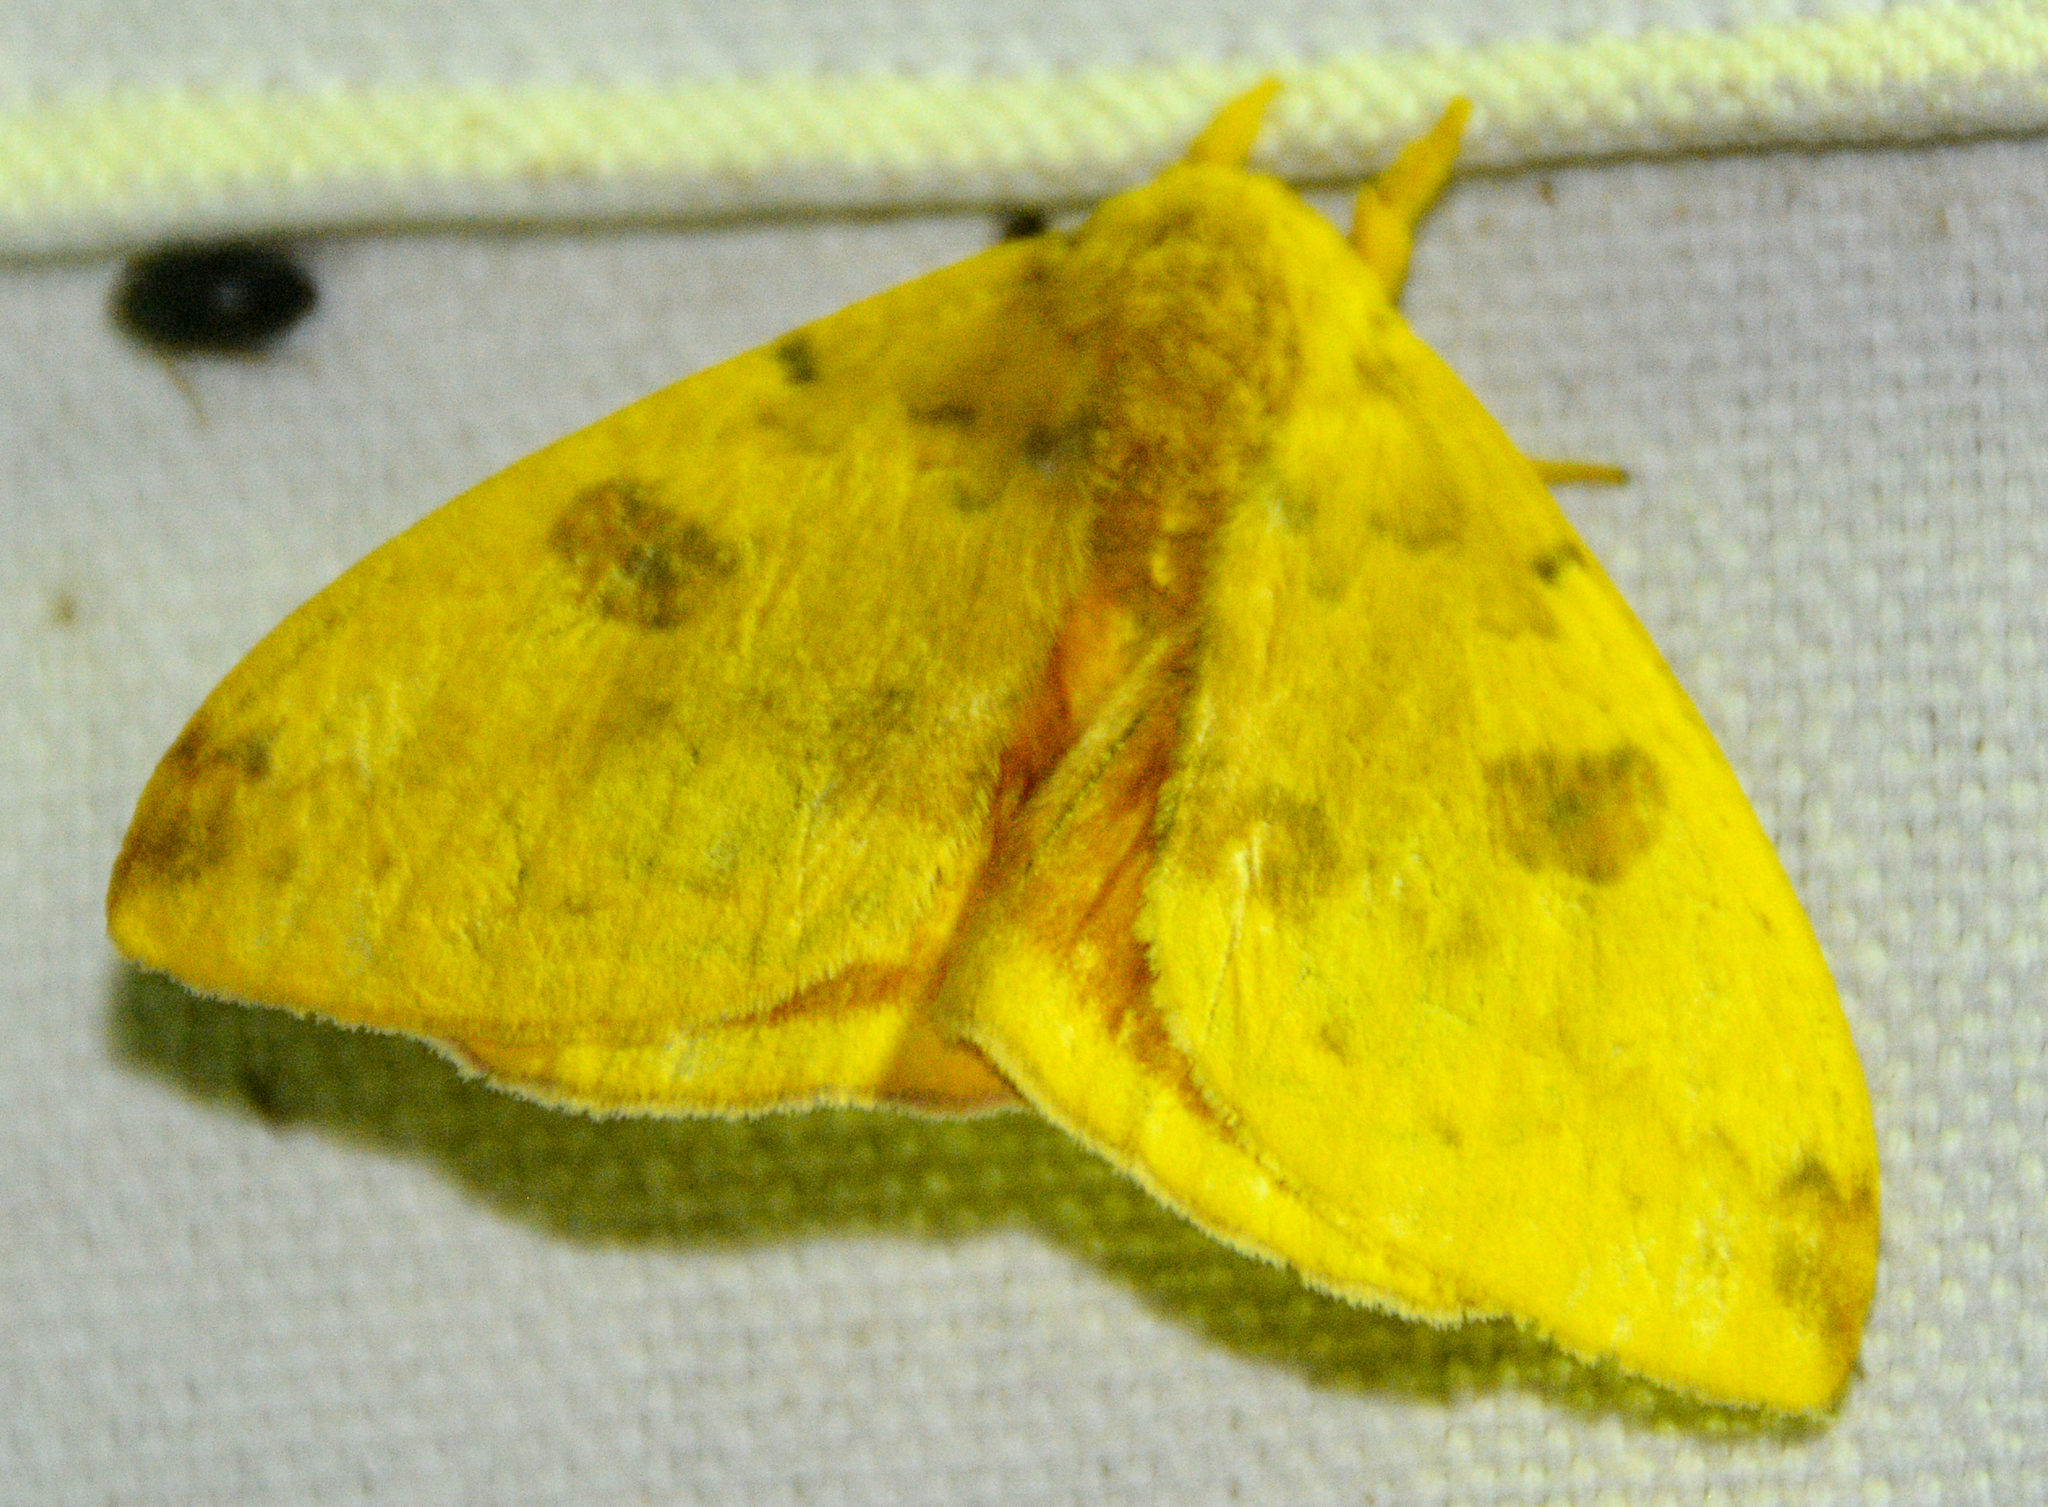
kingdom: Animalia
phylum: Arthropoda
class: Insecta
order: Lepidoptera
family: Saturniidae
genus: Automeris
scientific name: Automeris io
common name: Io moth
